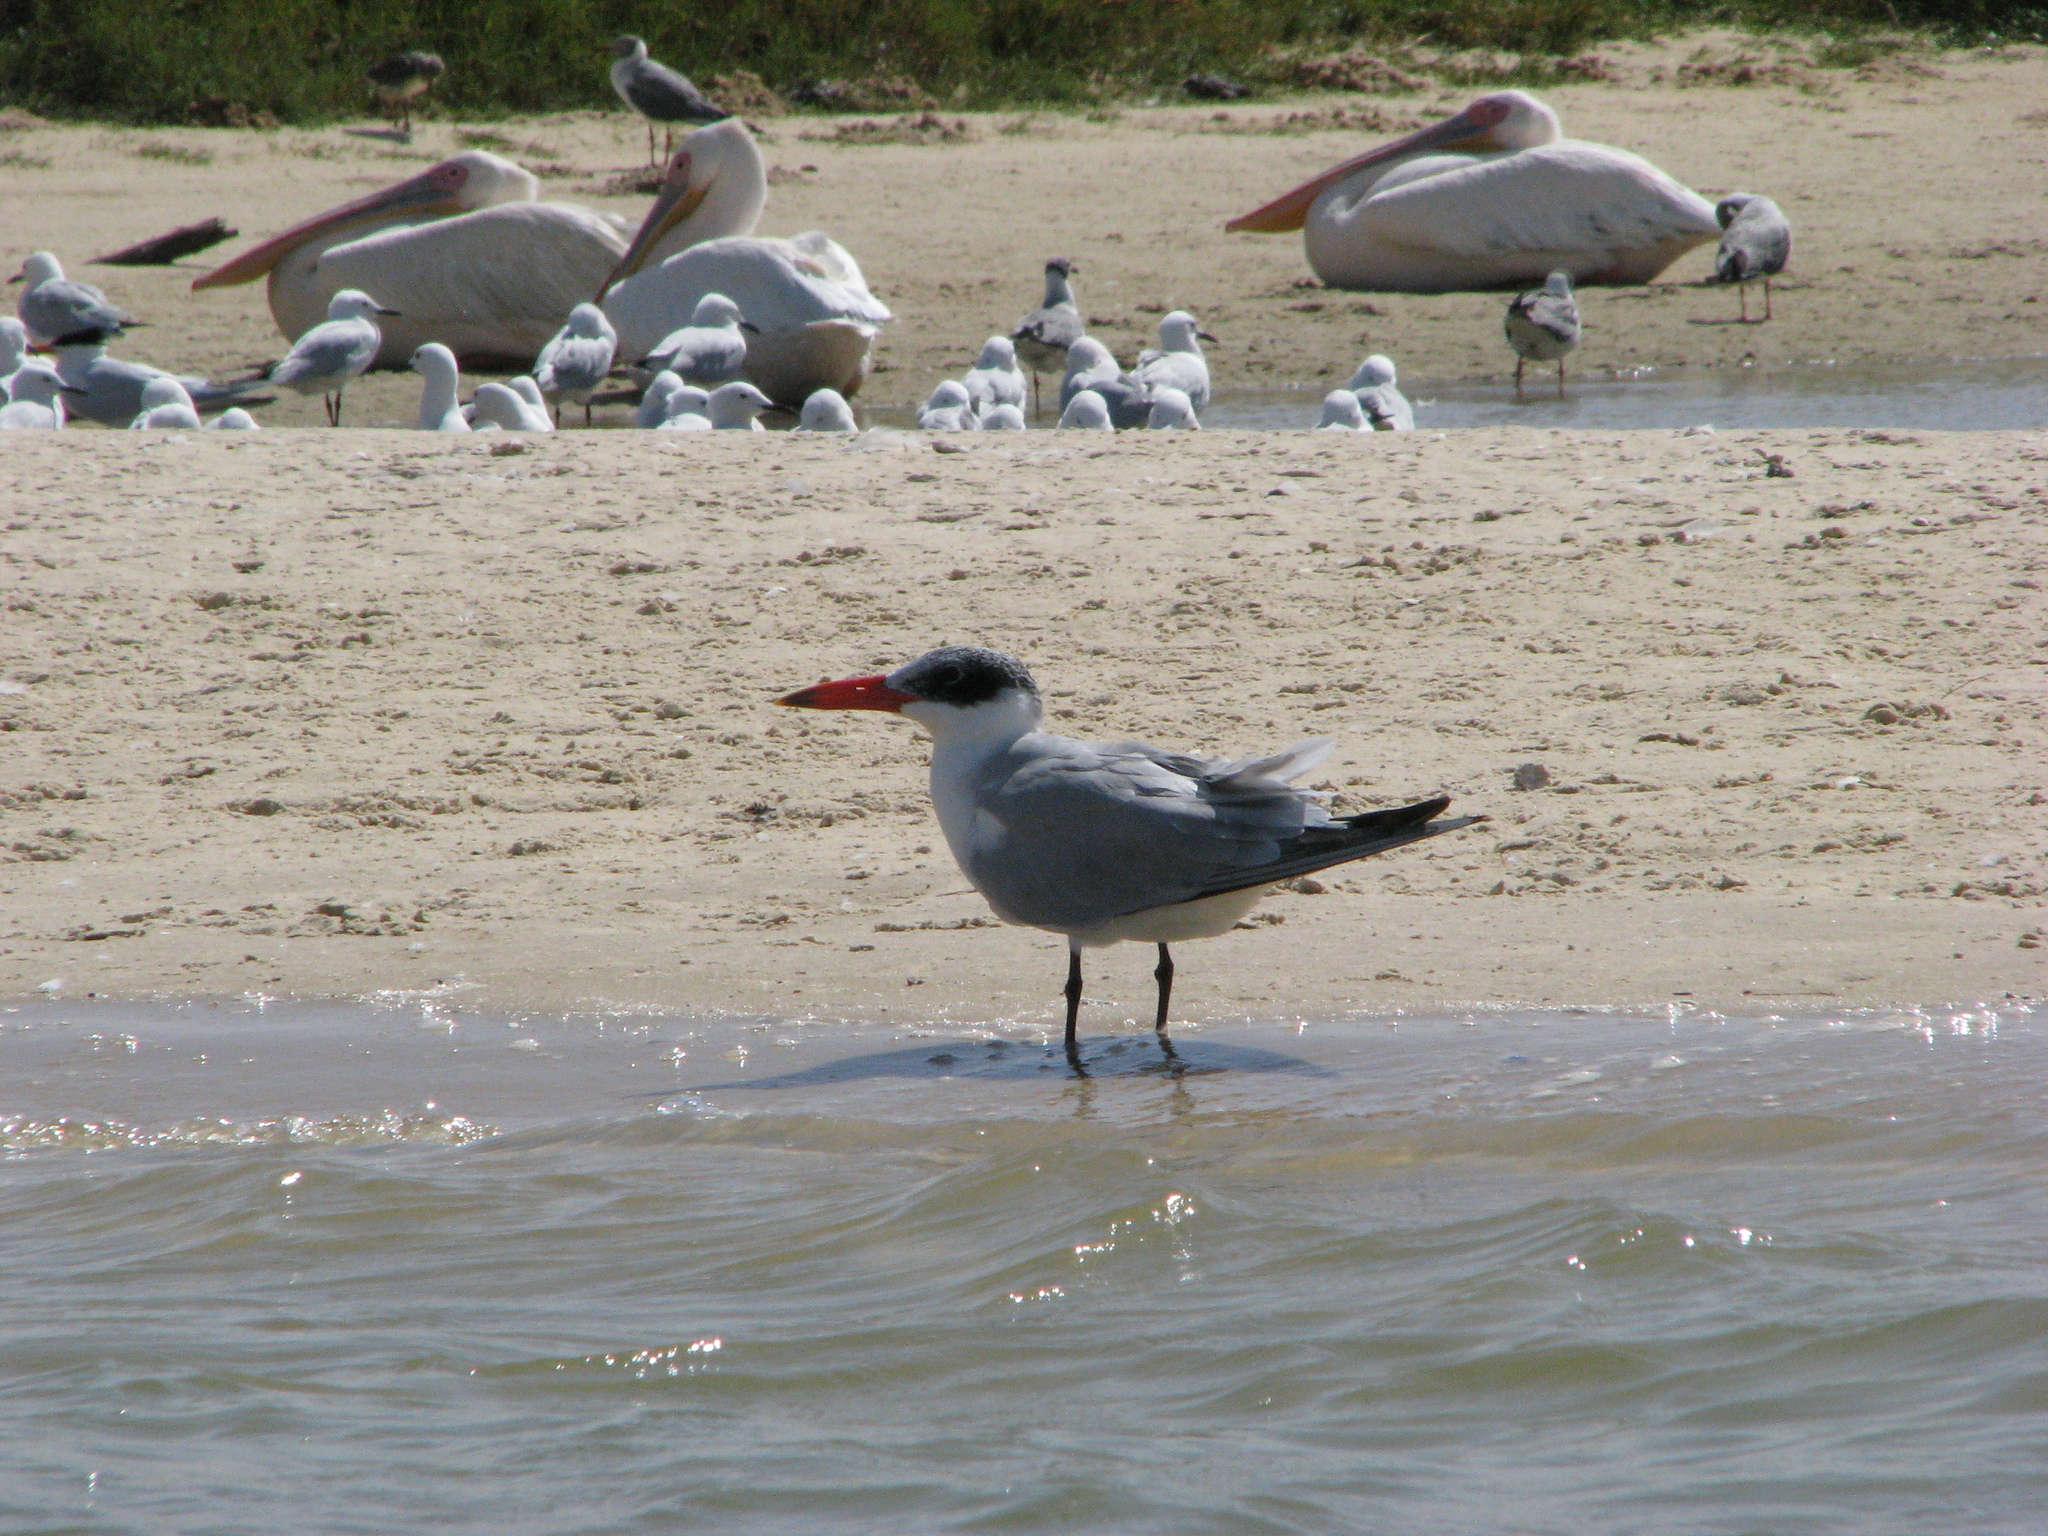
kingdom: Animalia
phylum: Chordata
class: Aves
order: Charadriiformes
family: Laridae
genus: Hydroprogne
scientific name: Hydroprogne caspia
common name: Caspian tern
